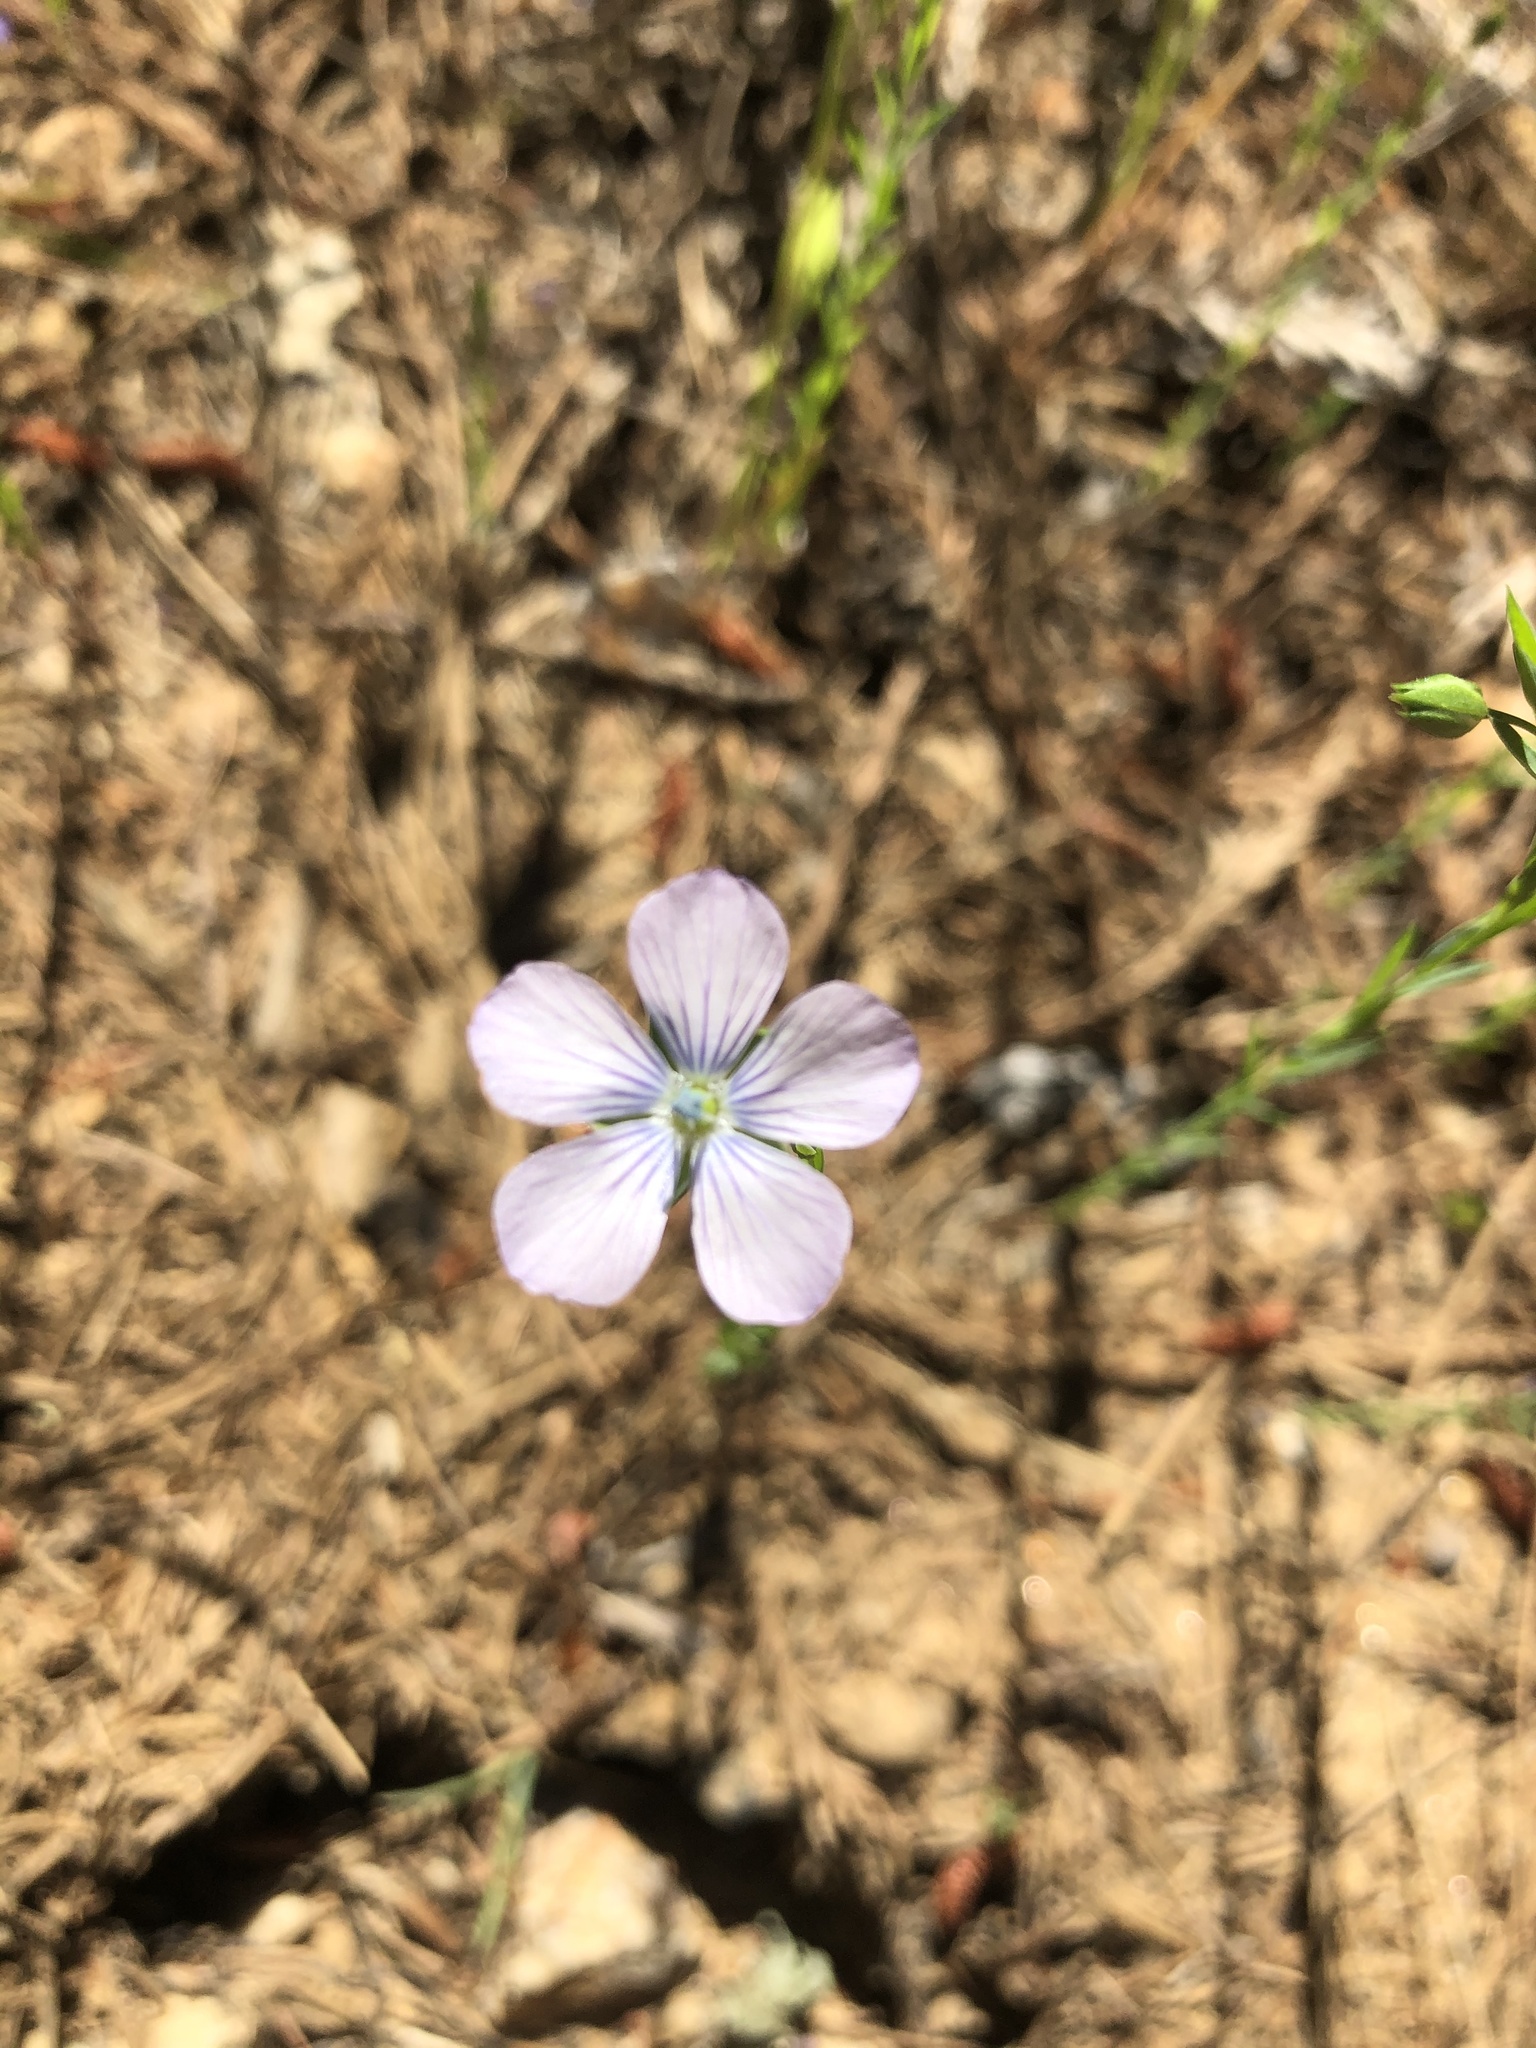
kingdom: Plantae
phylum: Tracheophyta
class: Magnoliopsida
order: Malpighiales
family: Linaceae
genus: Linum
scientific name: Linum bienne
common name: Pale flax
